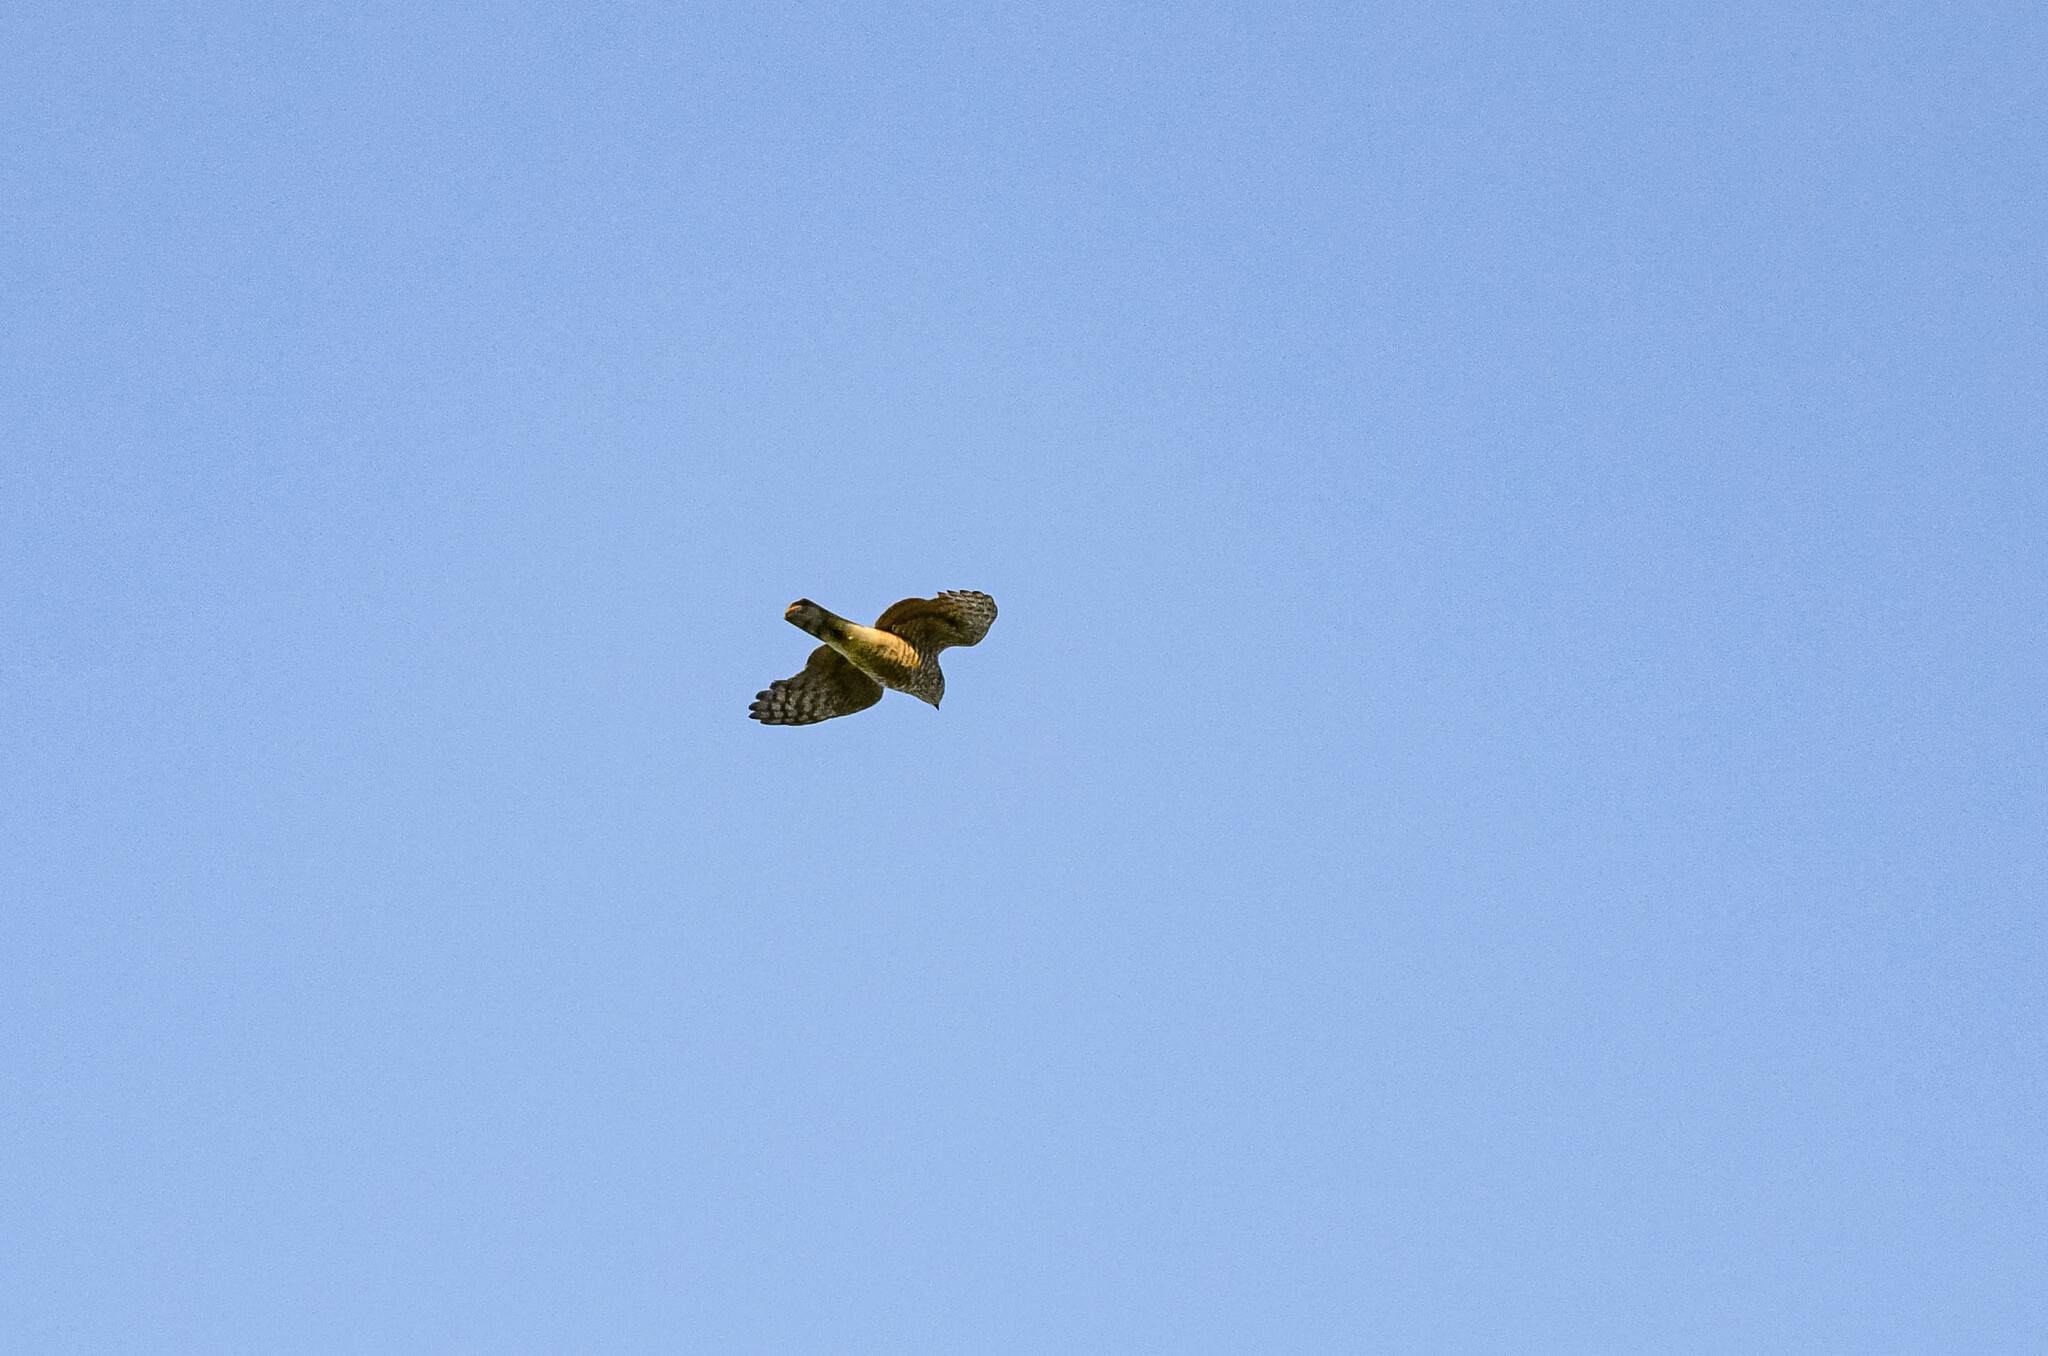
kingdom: Animalia
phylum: Chordata
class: Aves
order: Accipitriformes
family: Accipitridae
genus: Accipiter
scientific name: Accipiter nisus
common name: Eurasian sparrowhawk
